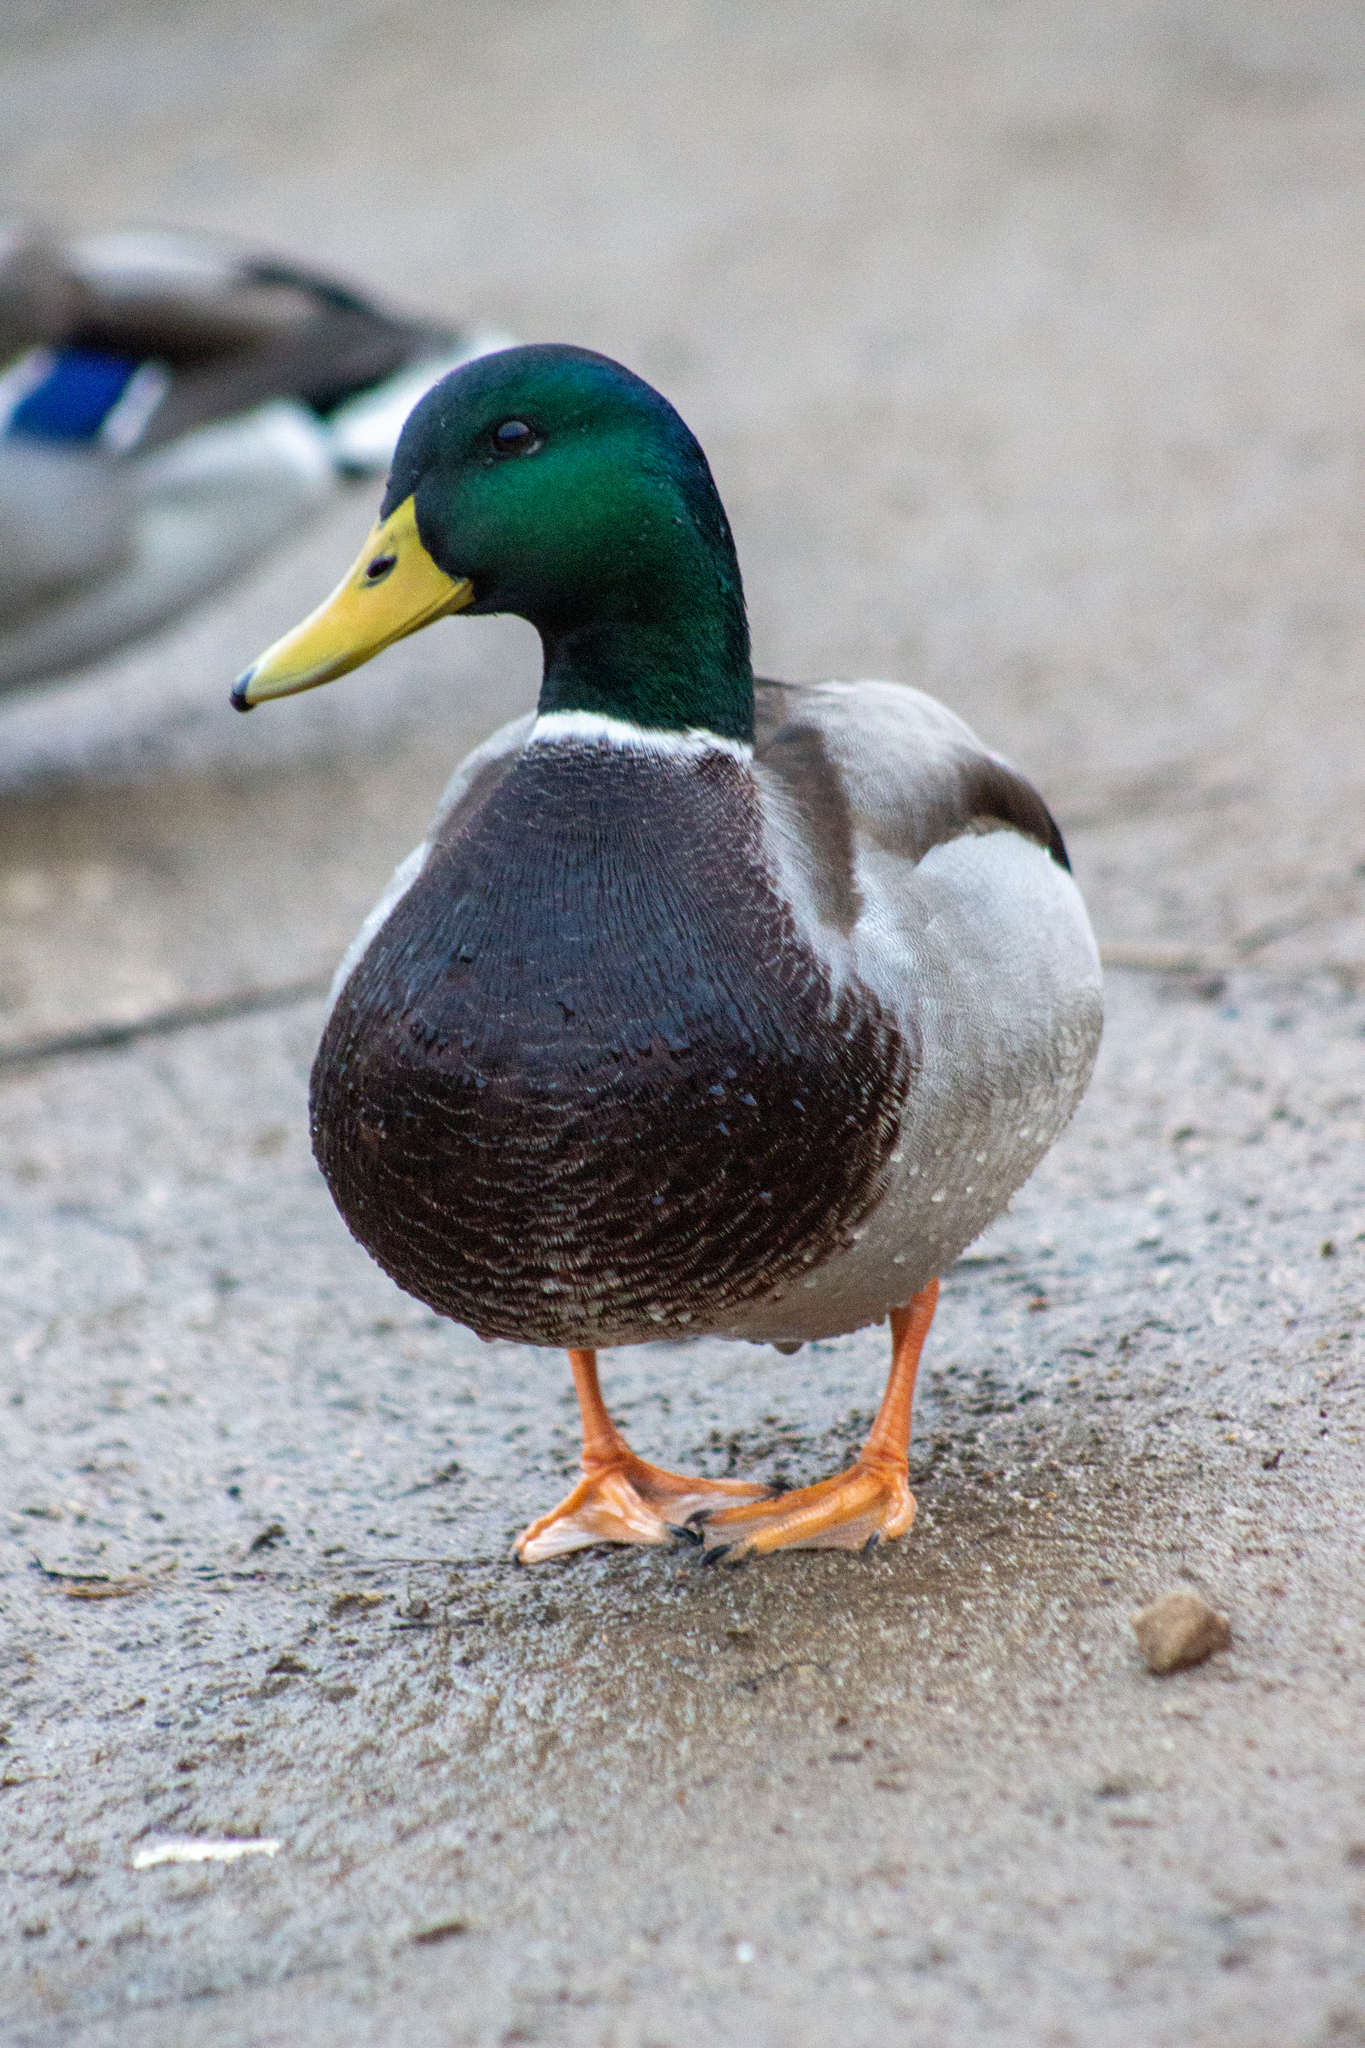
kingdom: Animalia
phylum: Chordata
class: Aves
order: Anseriformes
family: Anatidae
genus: Anas
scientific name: Anas platyrhynchos
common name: Mallard
